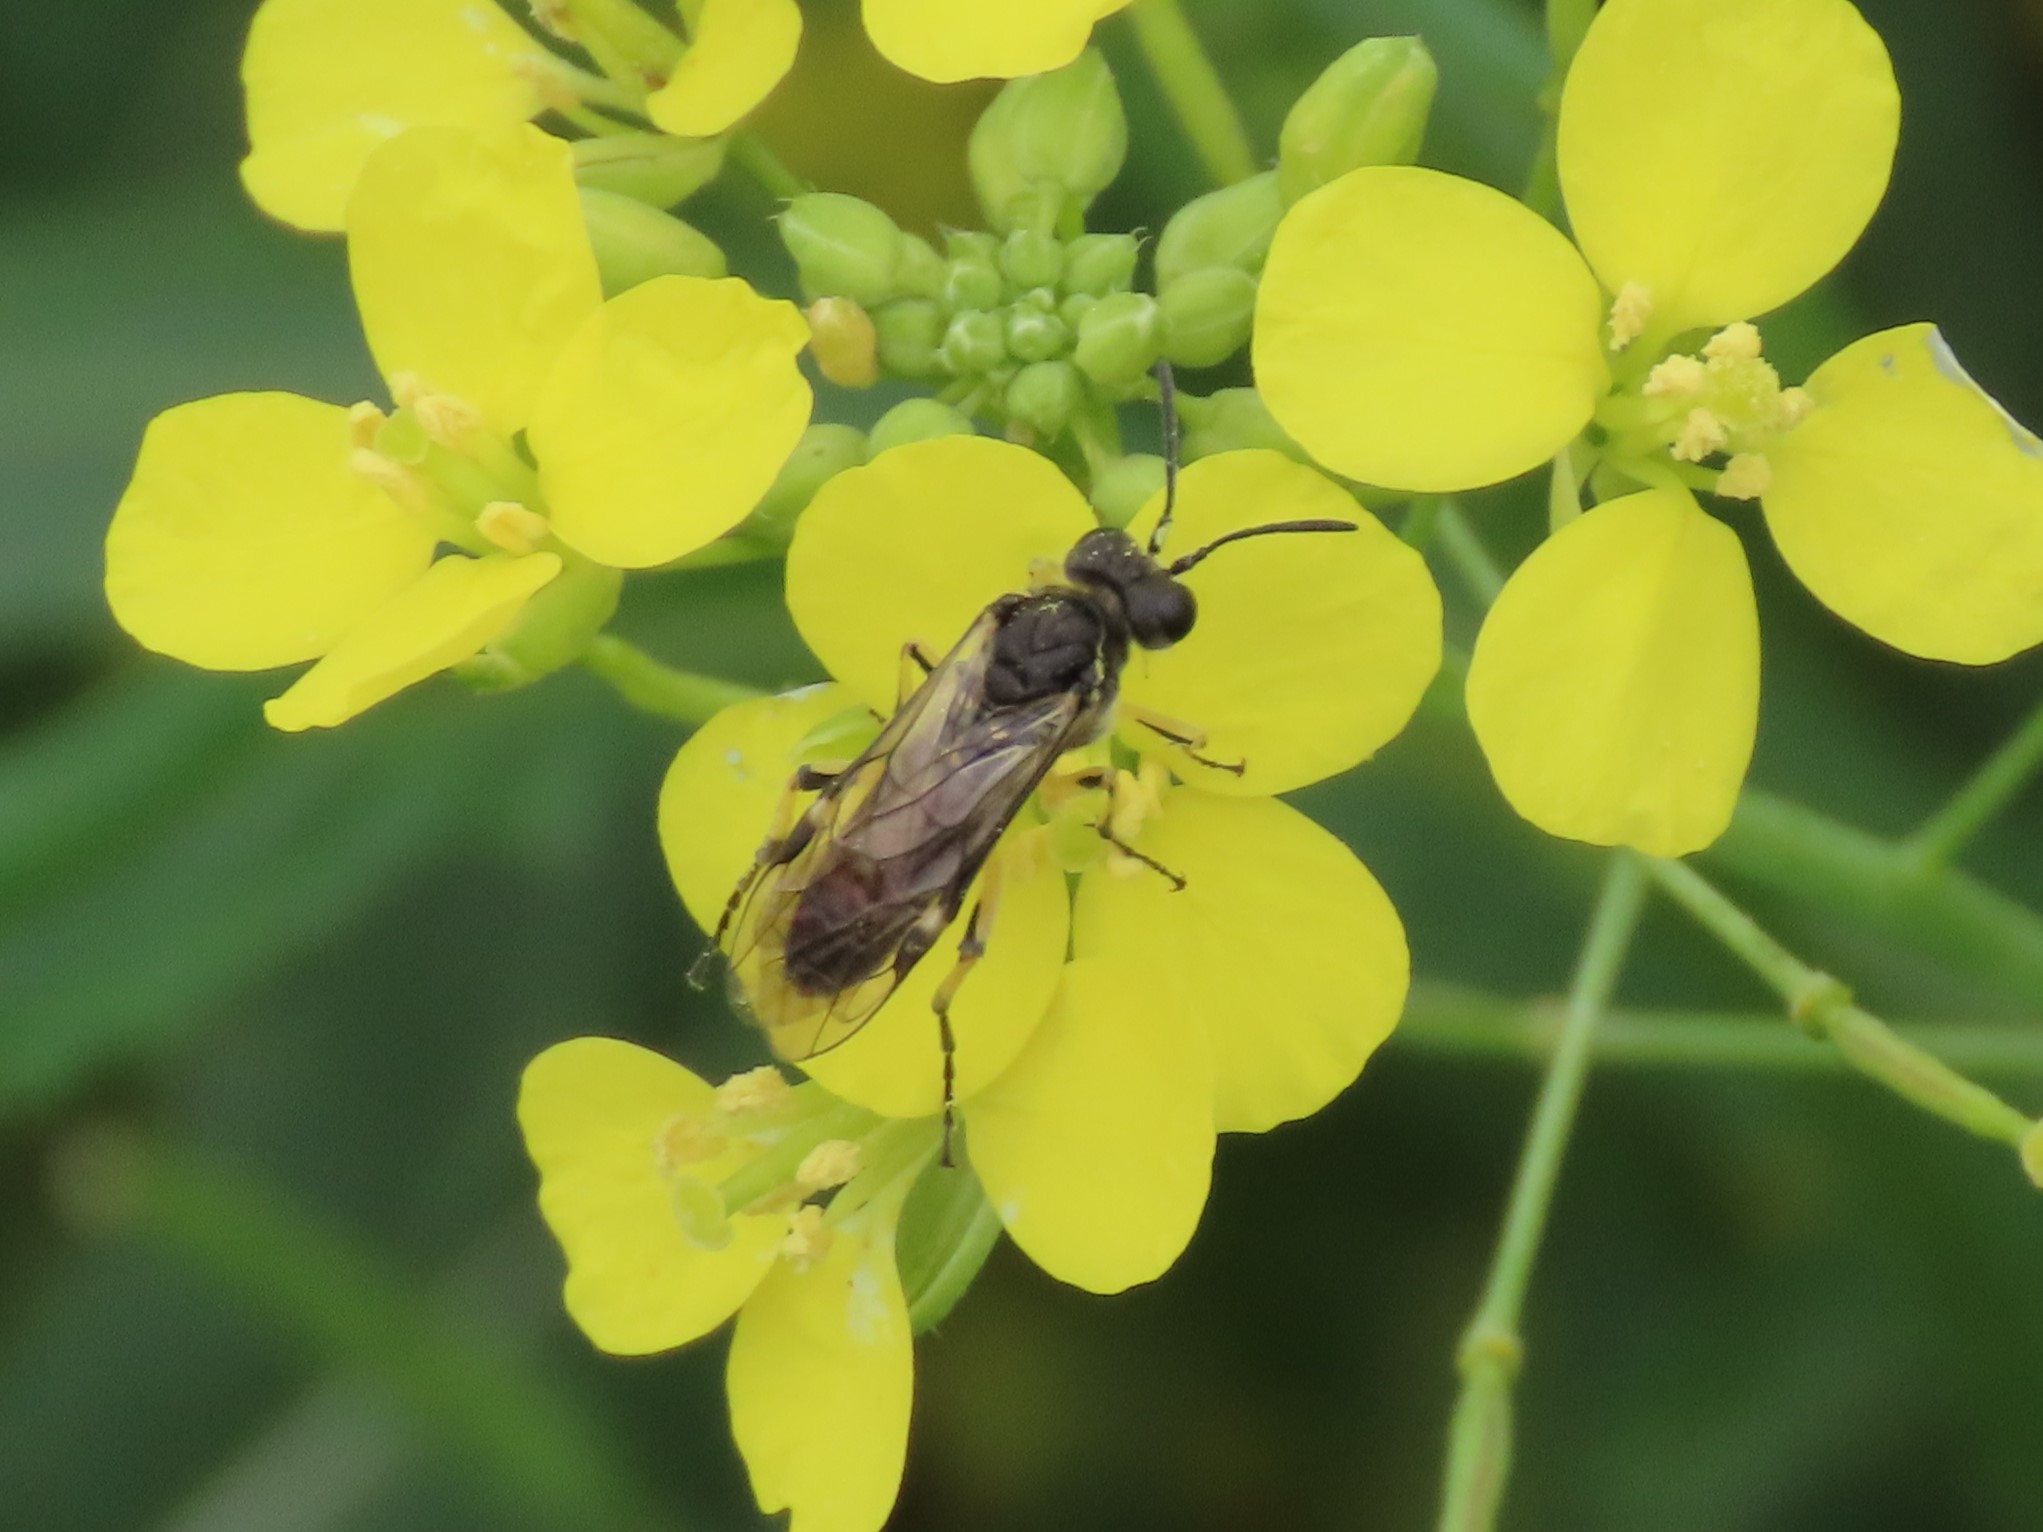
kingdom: Animalia
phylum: Arthropoda
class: Insecta
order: Hymenoptera
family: Tenthredinidae
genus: Tenthredo
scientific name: Tenthredo limbalis
